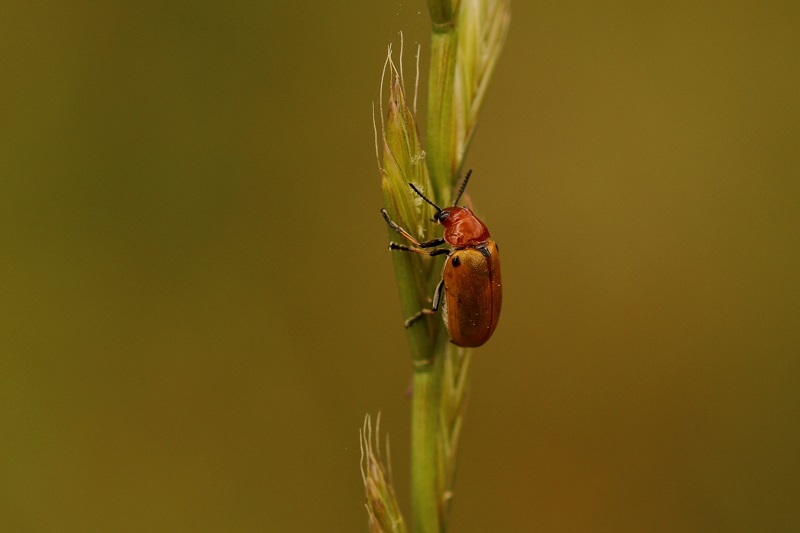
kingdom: Animalia
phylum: Arthropoda
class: Insecta
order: Coleoptera
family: Chrysomelidae
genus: Antipus
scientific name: Antipus rufus
